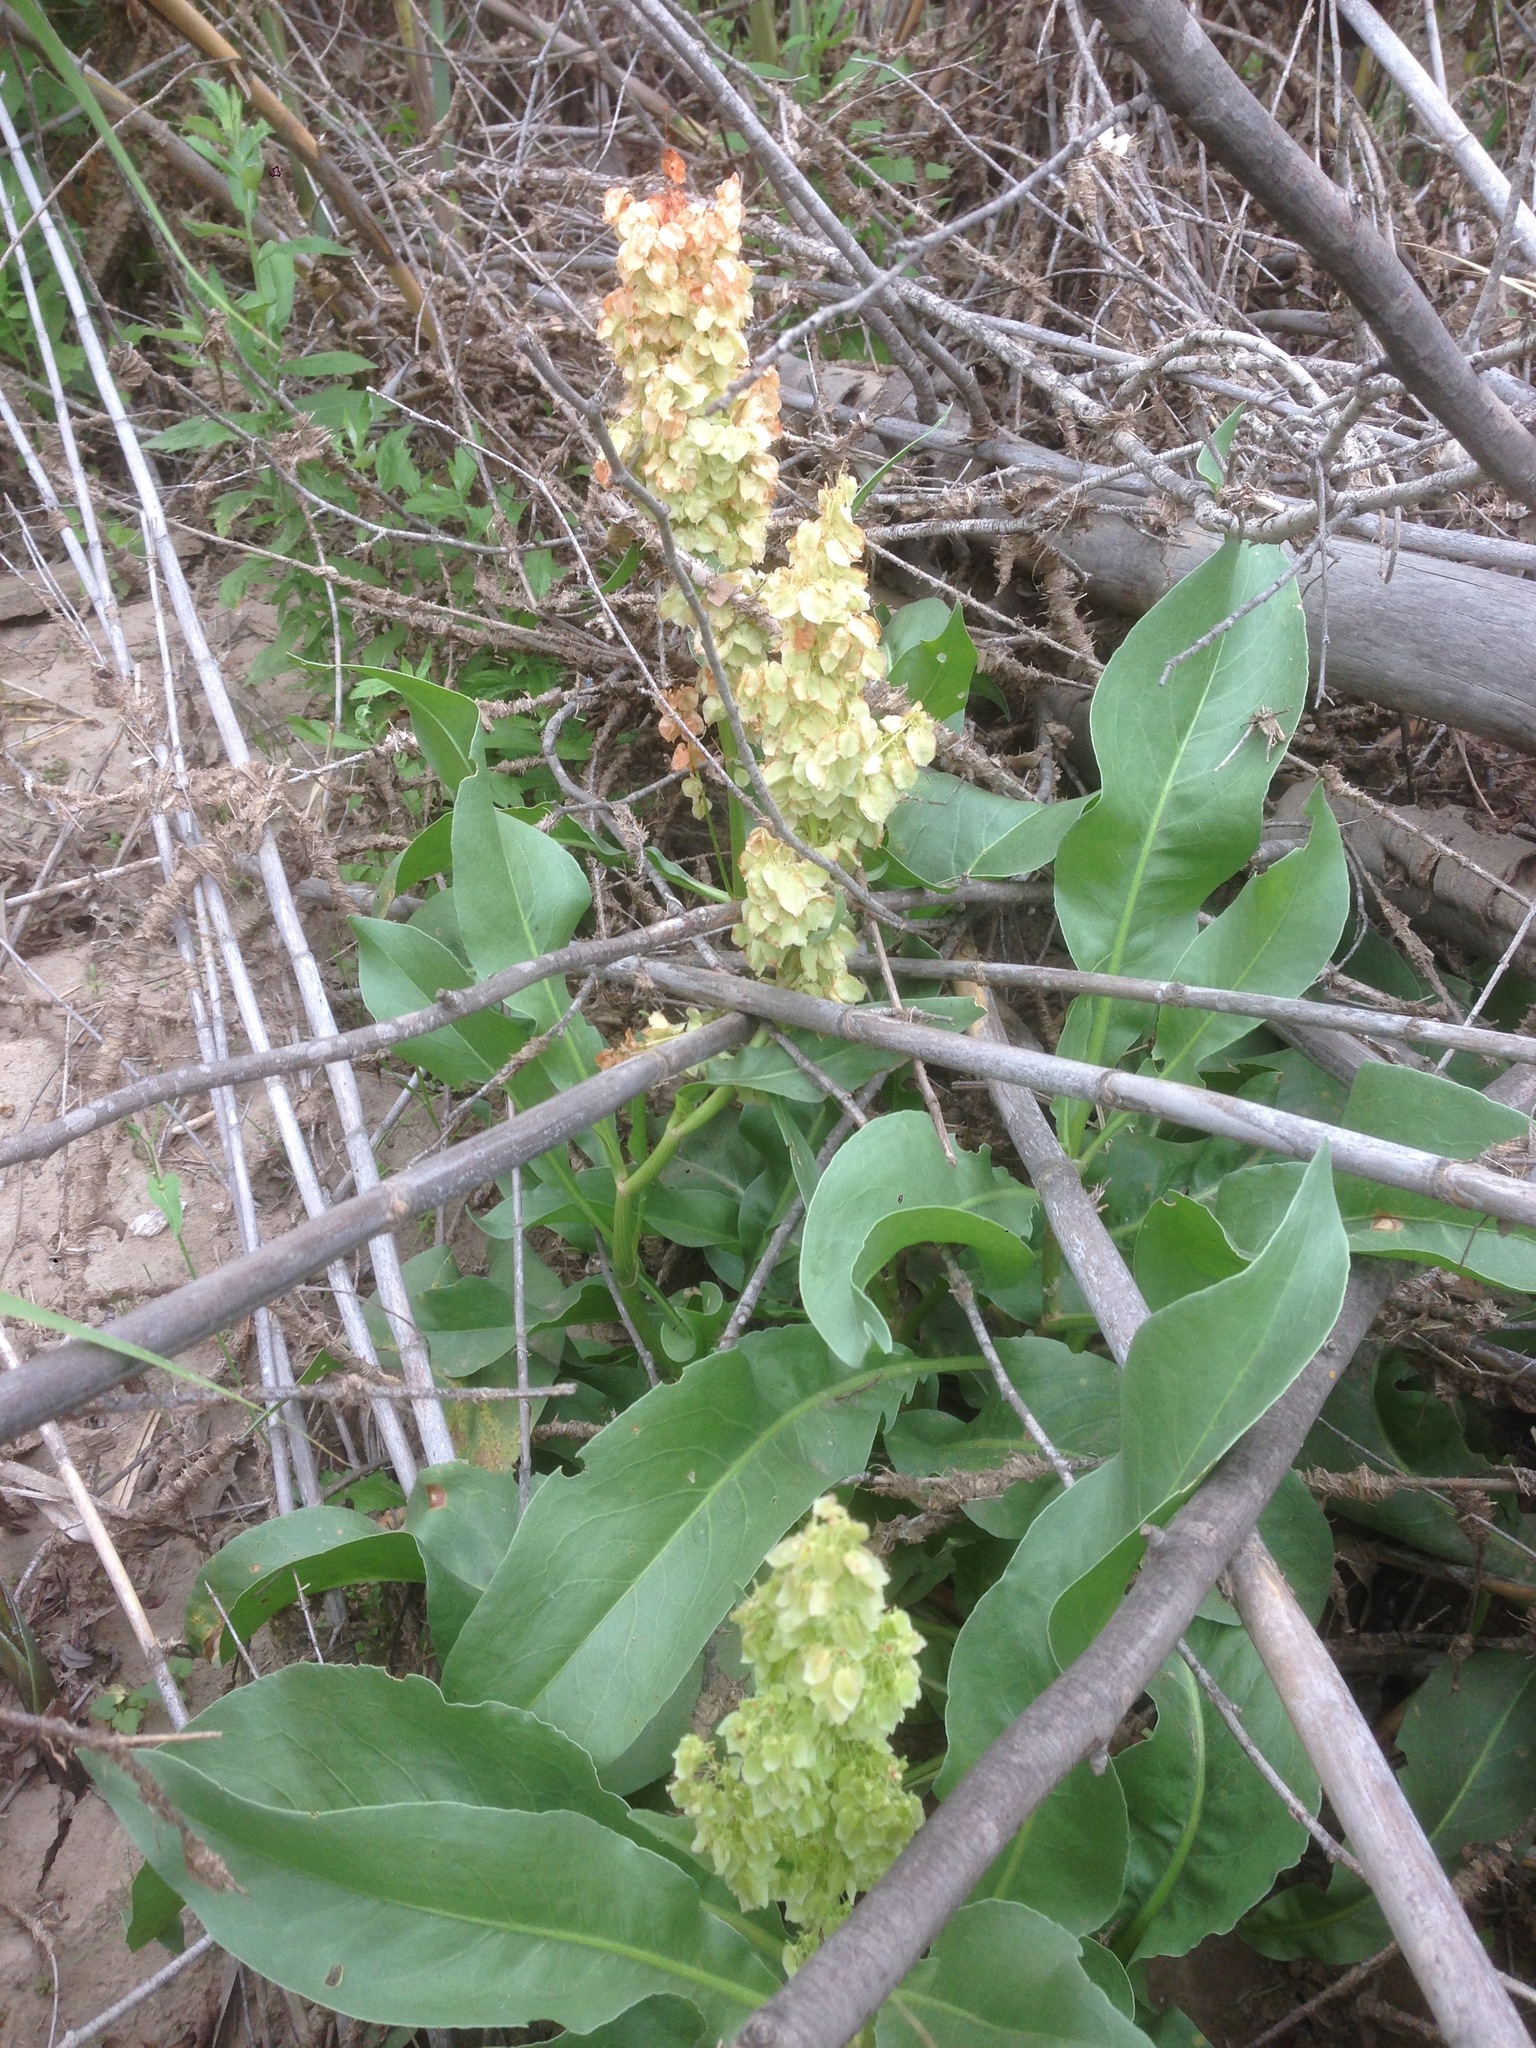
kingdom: Plantae
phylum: Tracheophyta
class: Magnoliopsida
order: Caryophyllales
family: Polygonaceae
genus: Rumex
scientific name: Rumex hymenosepalus
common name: Ganagra
